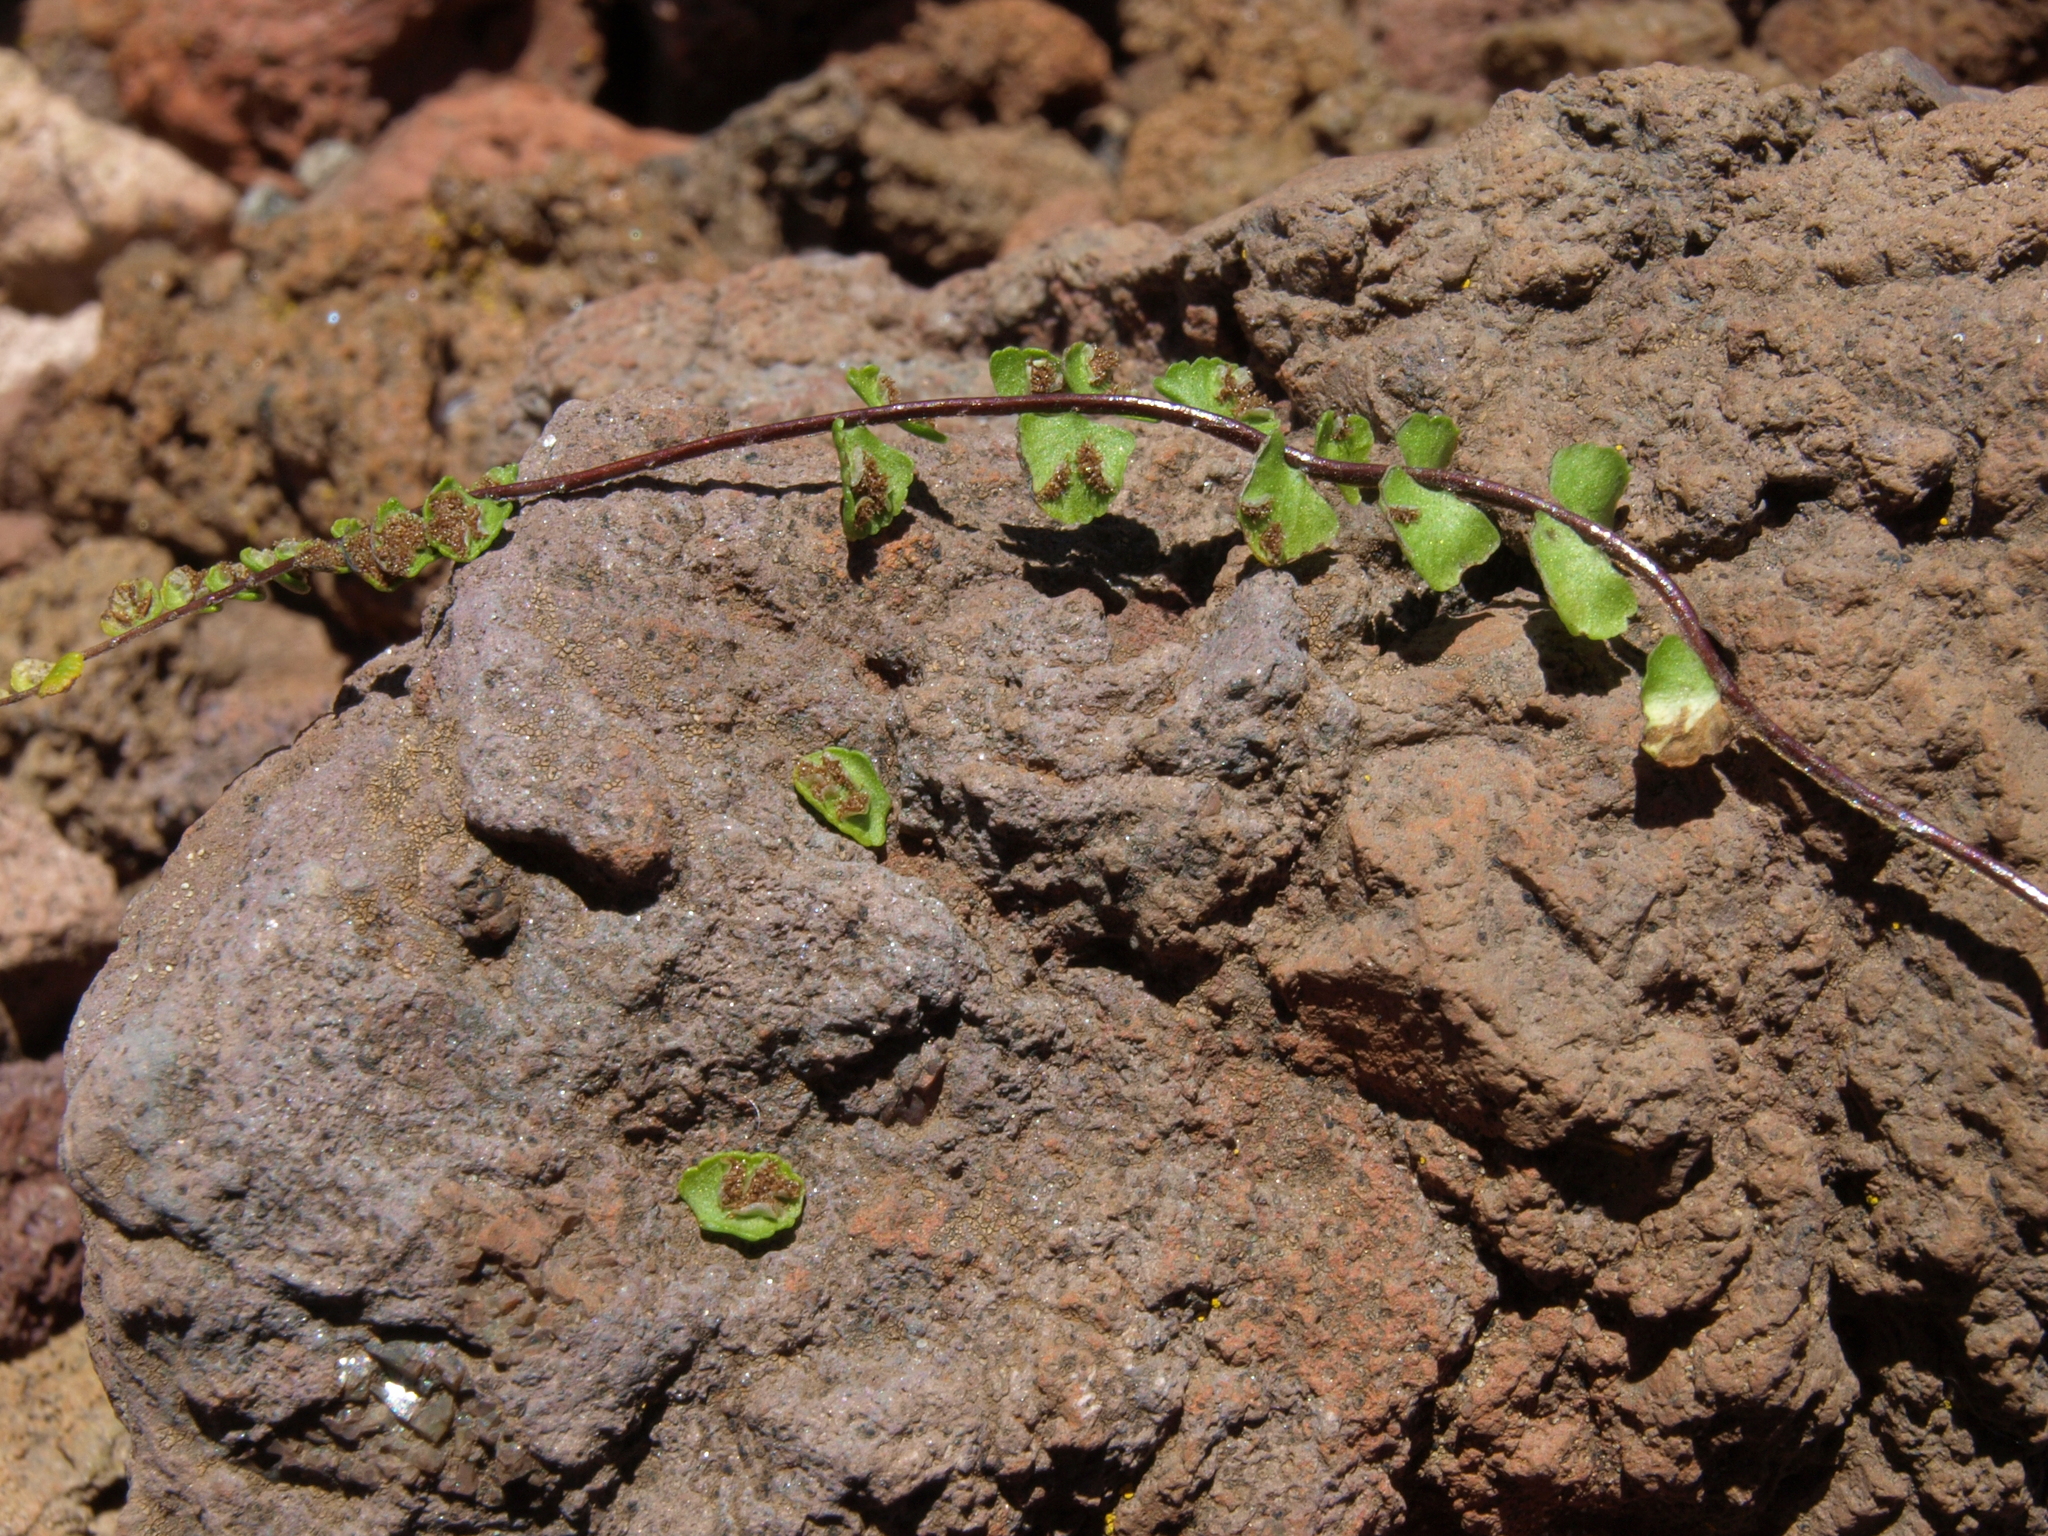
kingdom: Plantae
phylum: Tracheophyta
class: Polypodiopsida
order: Polypodiales
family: Aspleniaceae
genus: Asplenium
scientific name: Asplenium densum
